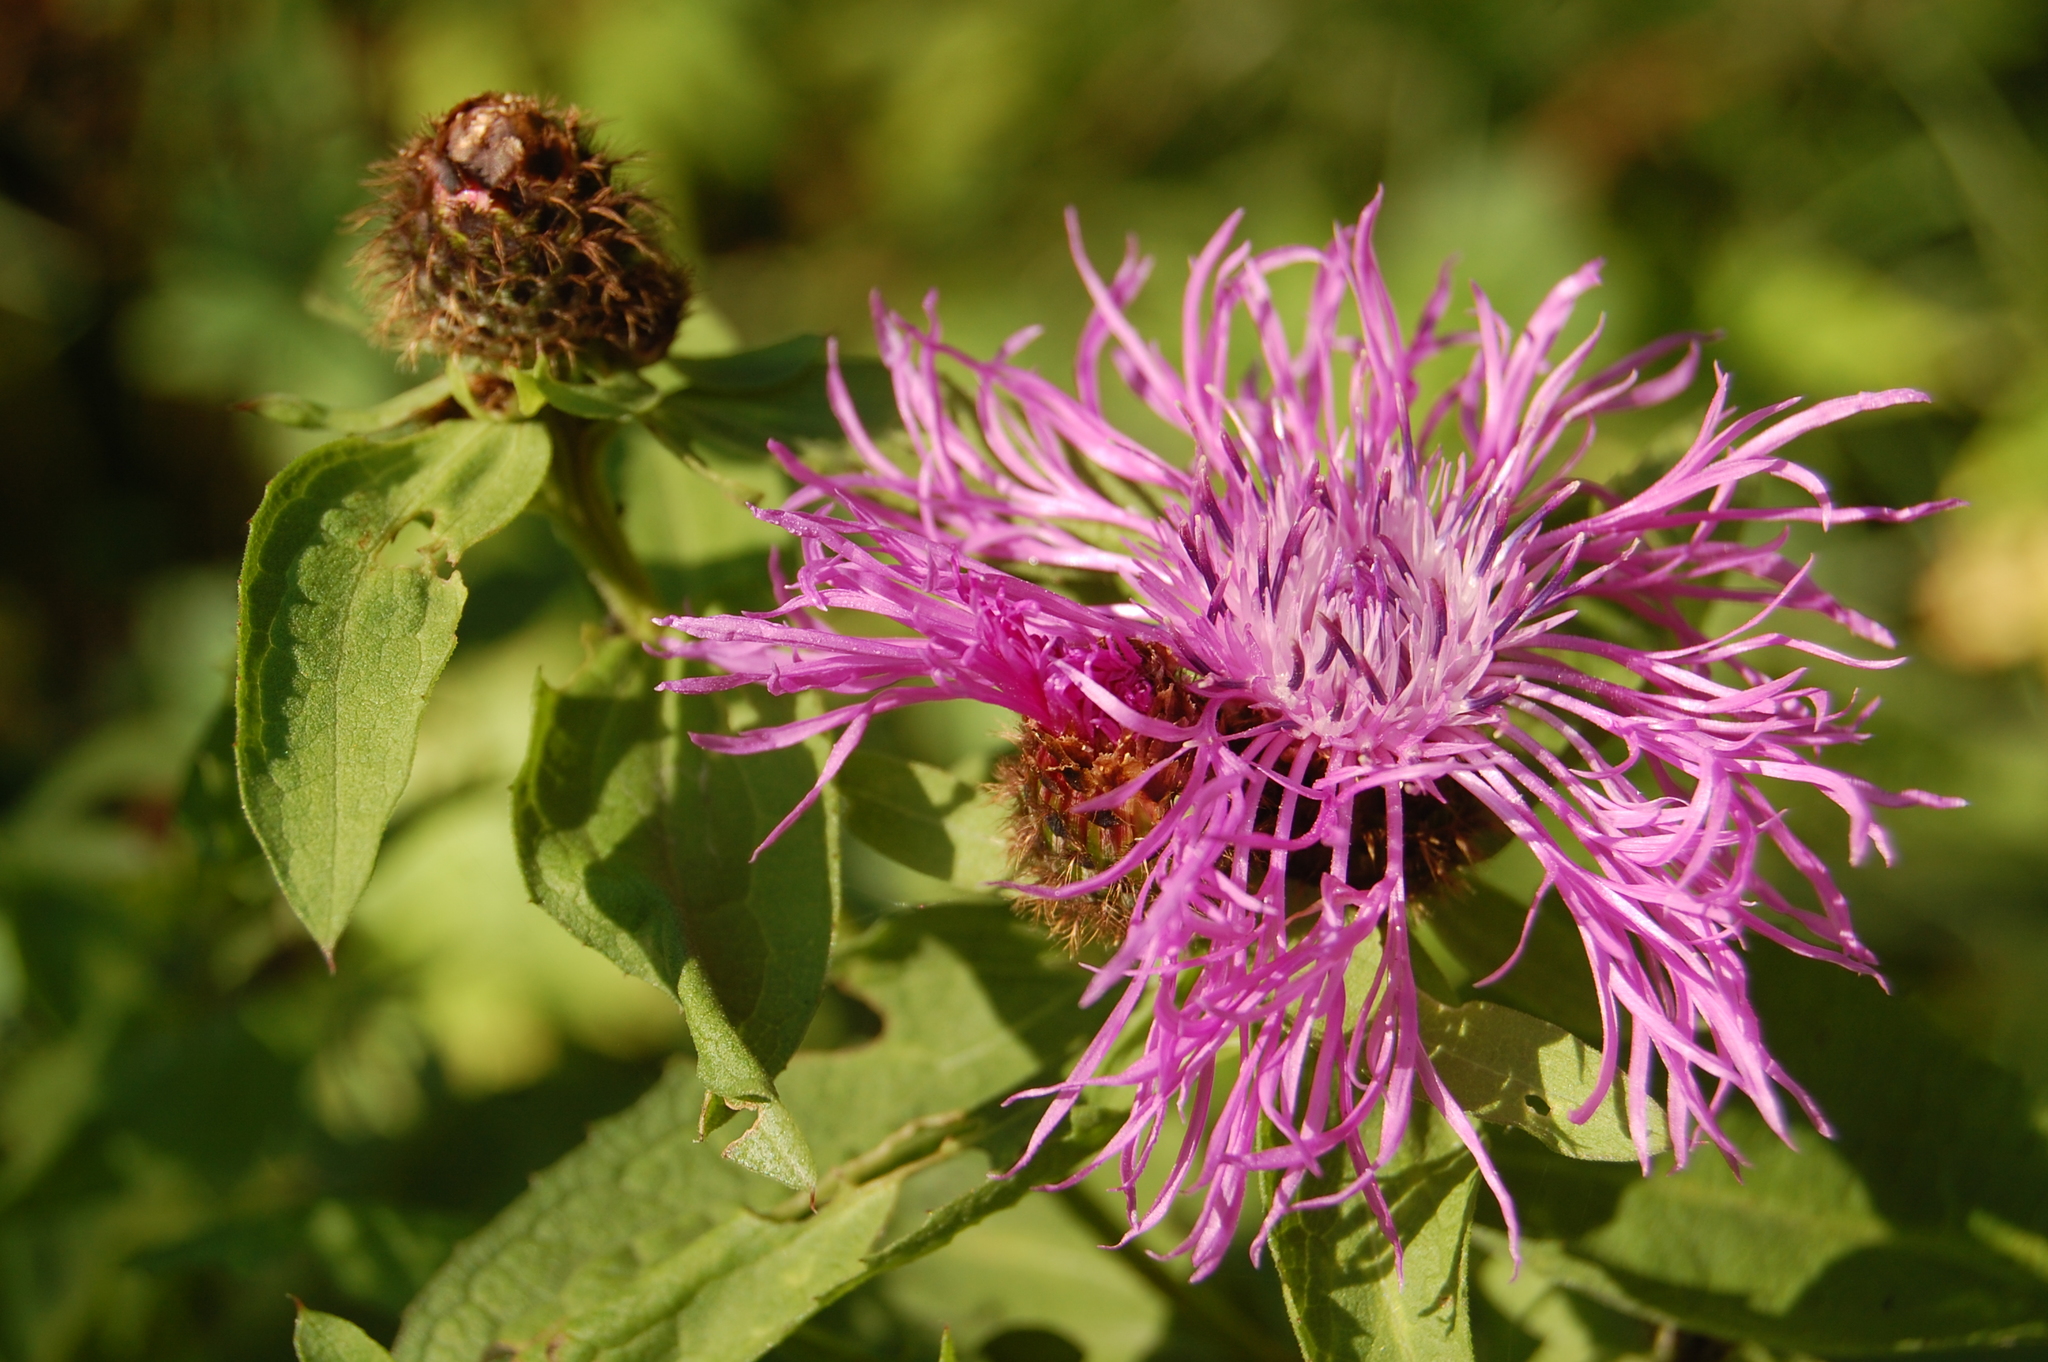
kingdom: Plantae
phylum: Tracheophyta
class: Magnoliopsida
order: Asterales
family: Asteraceae
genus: Centaurea
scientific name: Centaurea pseudophrygia
